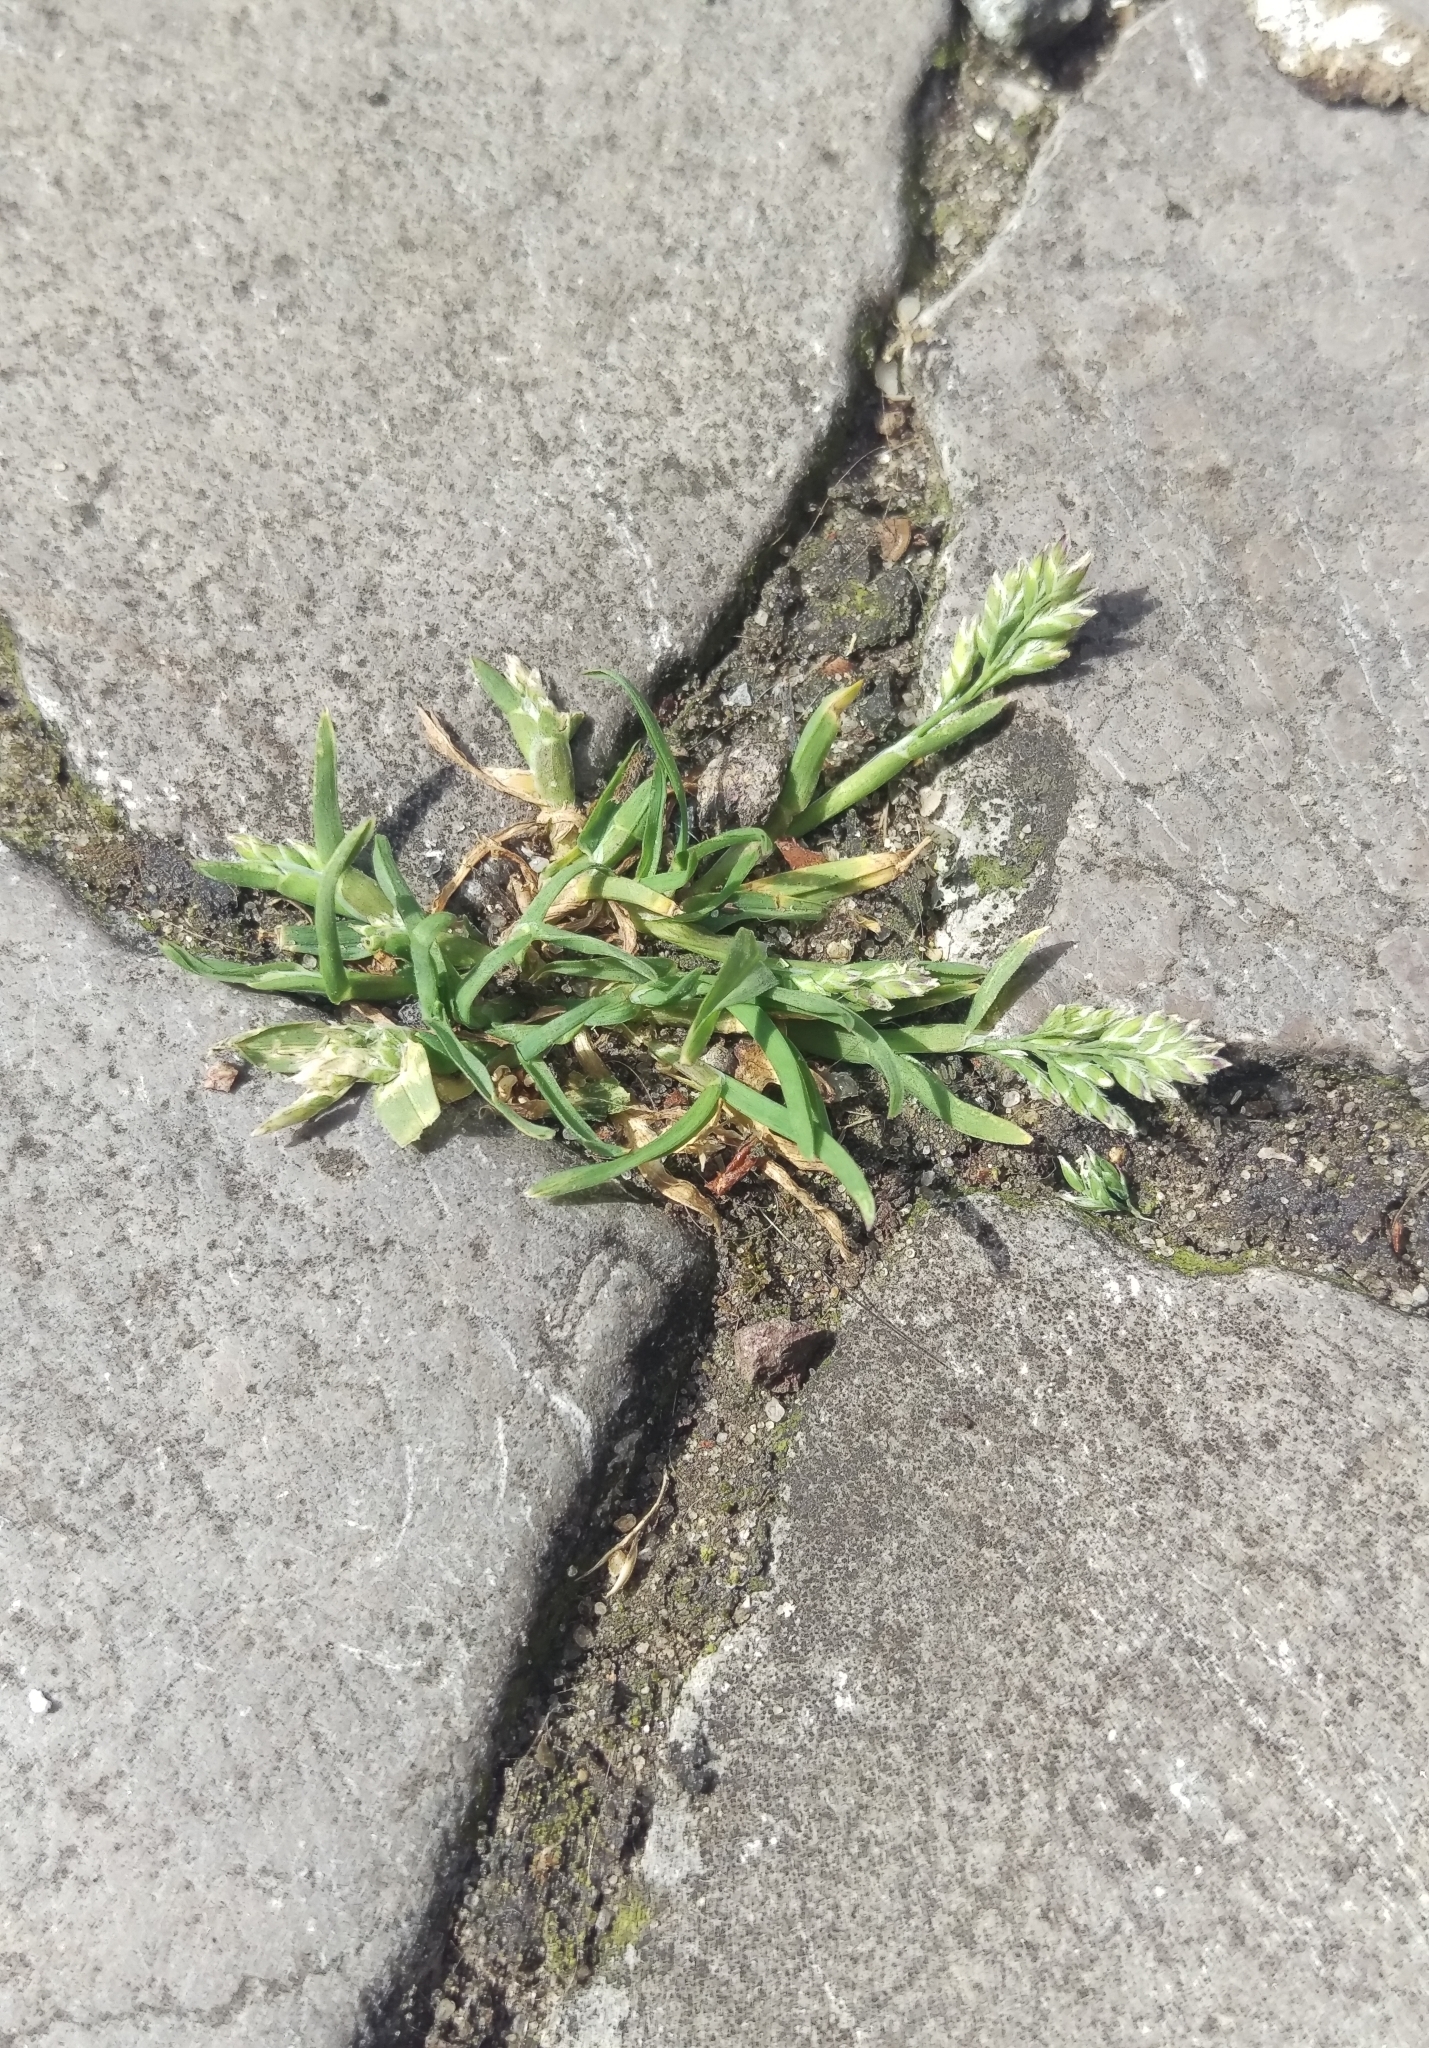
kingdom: Plantae
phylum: Tracheophyta
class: Liliopsida
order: Poales
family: Poaceae
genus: Poa
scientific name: Poa annua
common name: Annual bluegrass
